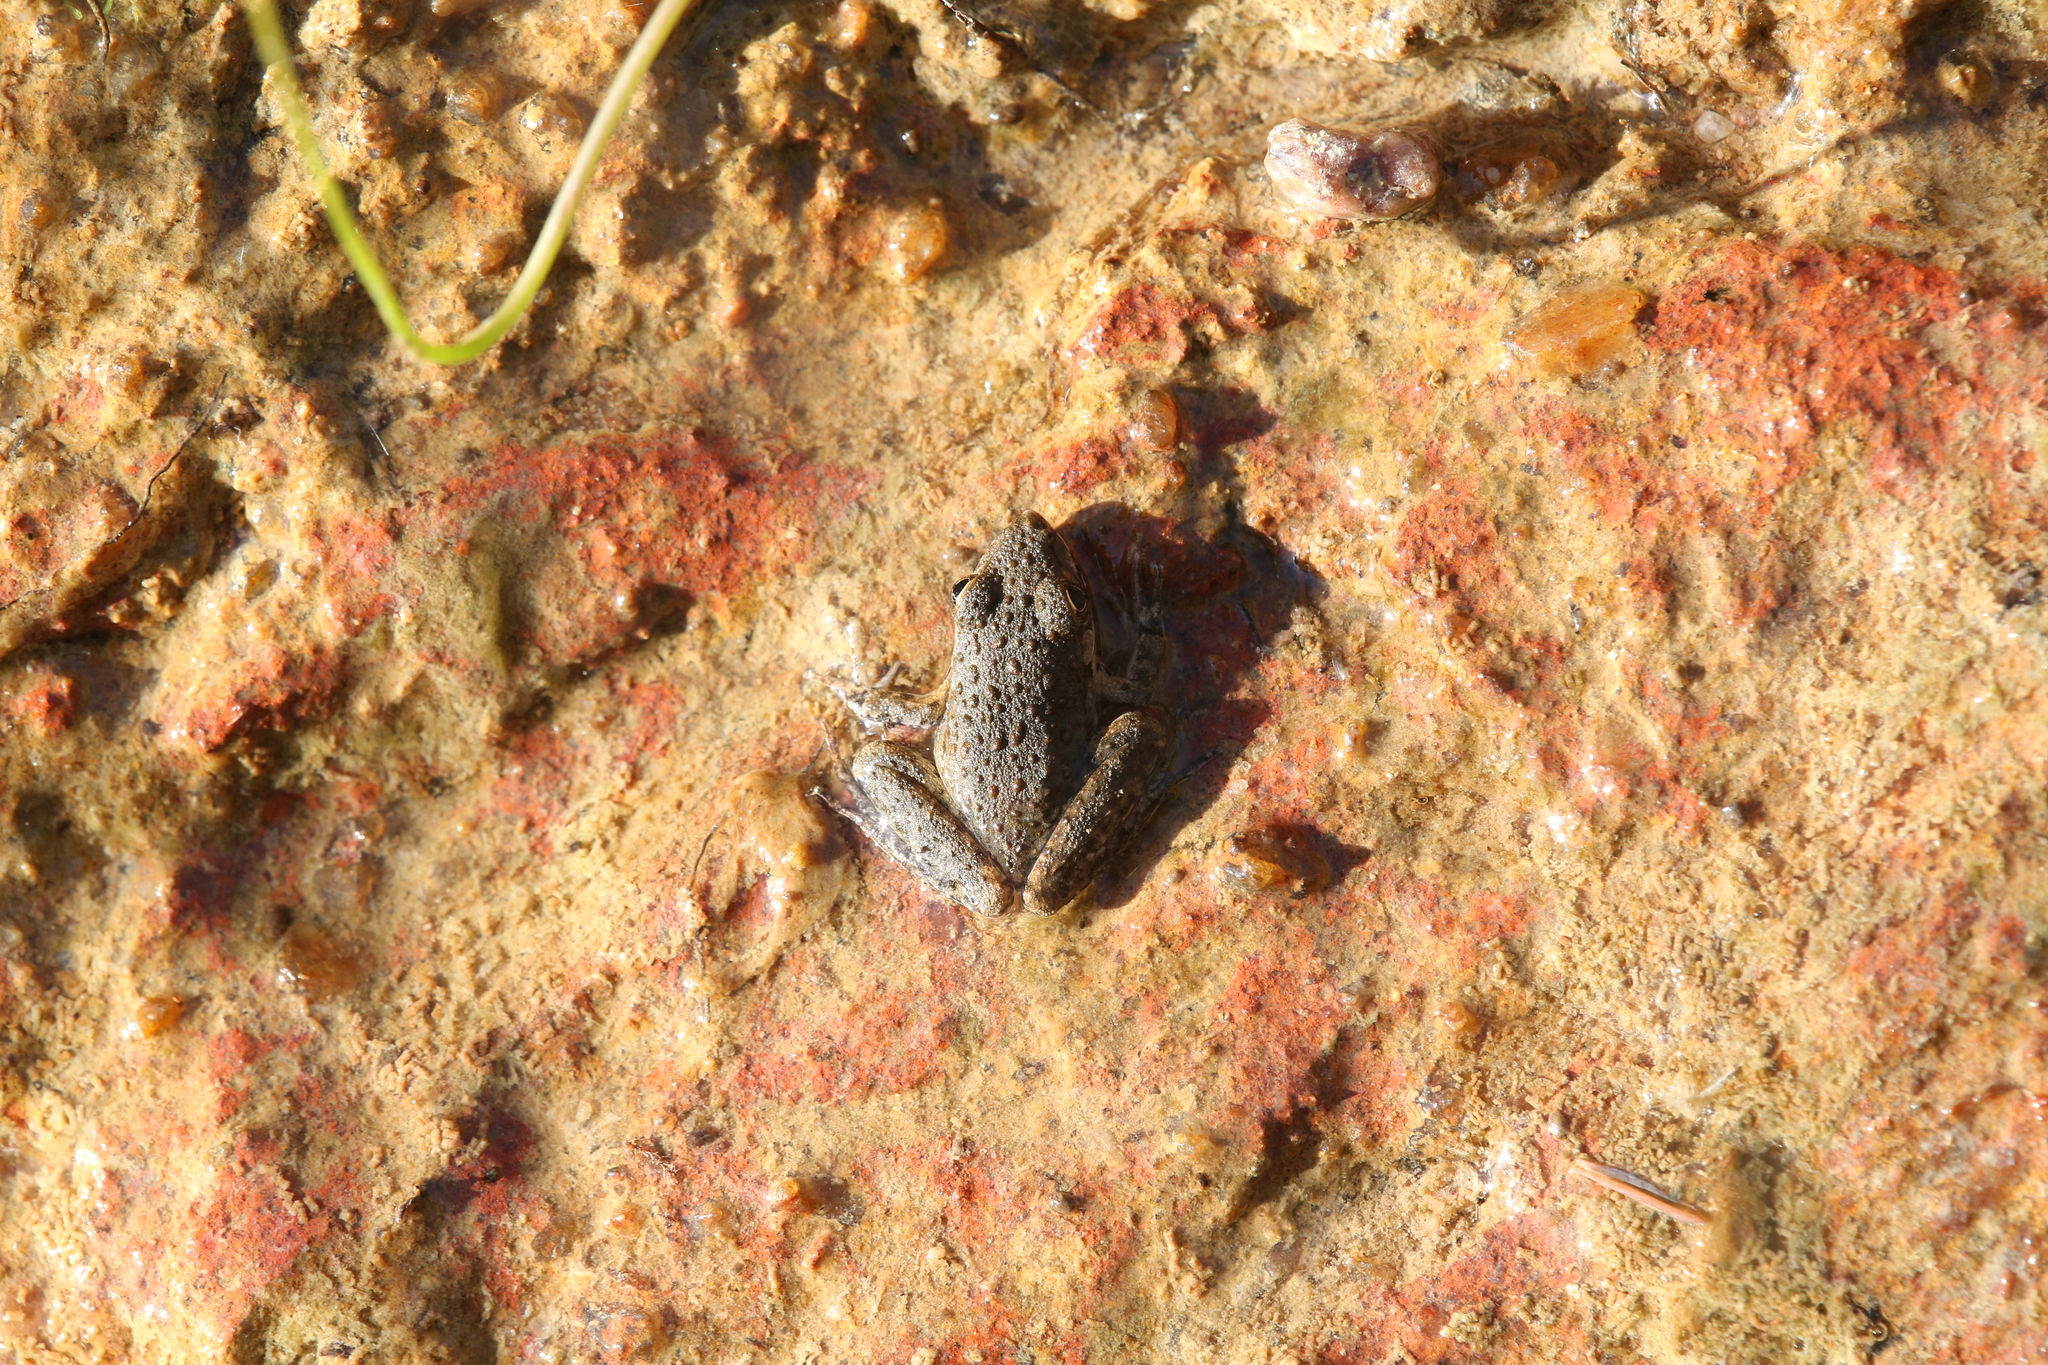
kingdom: Animalia
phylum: Chordata
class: Amphibia
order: Anura
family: Pelodryadidae
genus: Litoria
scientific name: Litoria inermis
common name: Bumpy rocket frog
